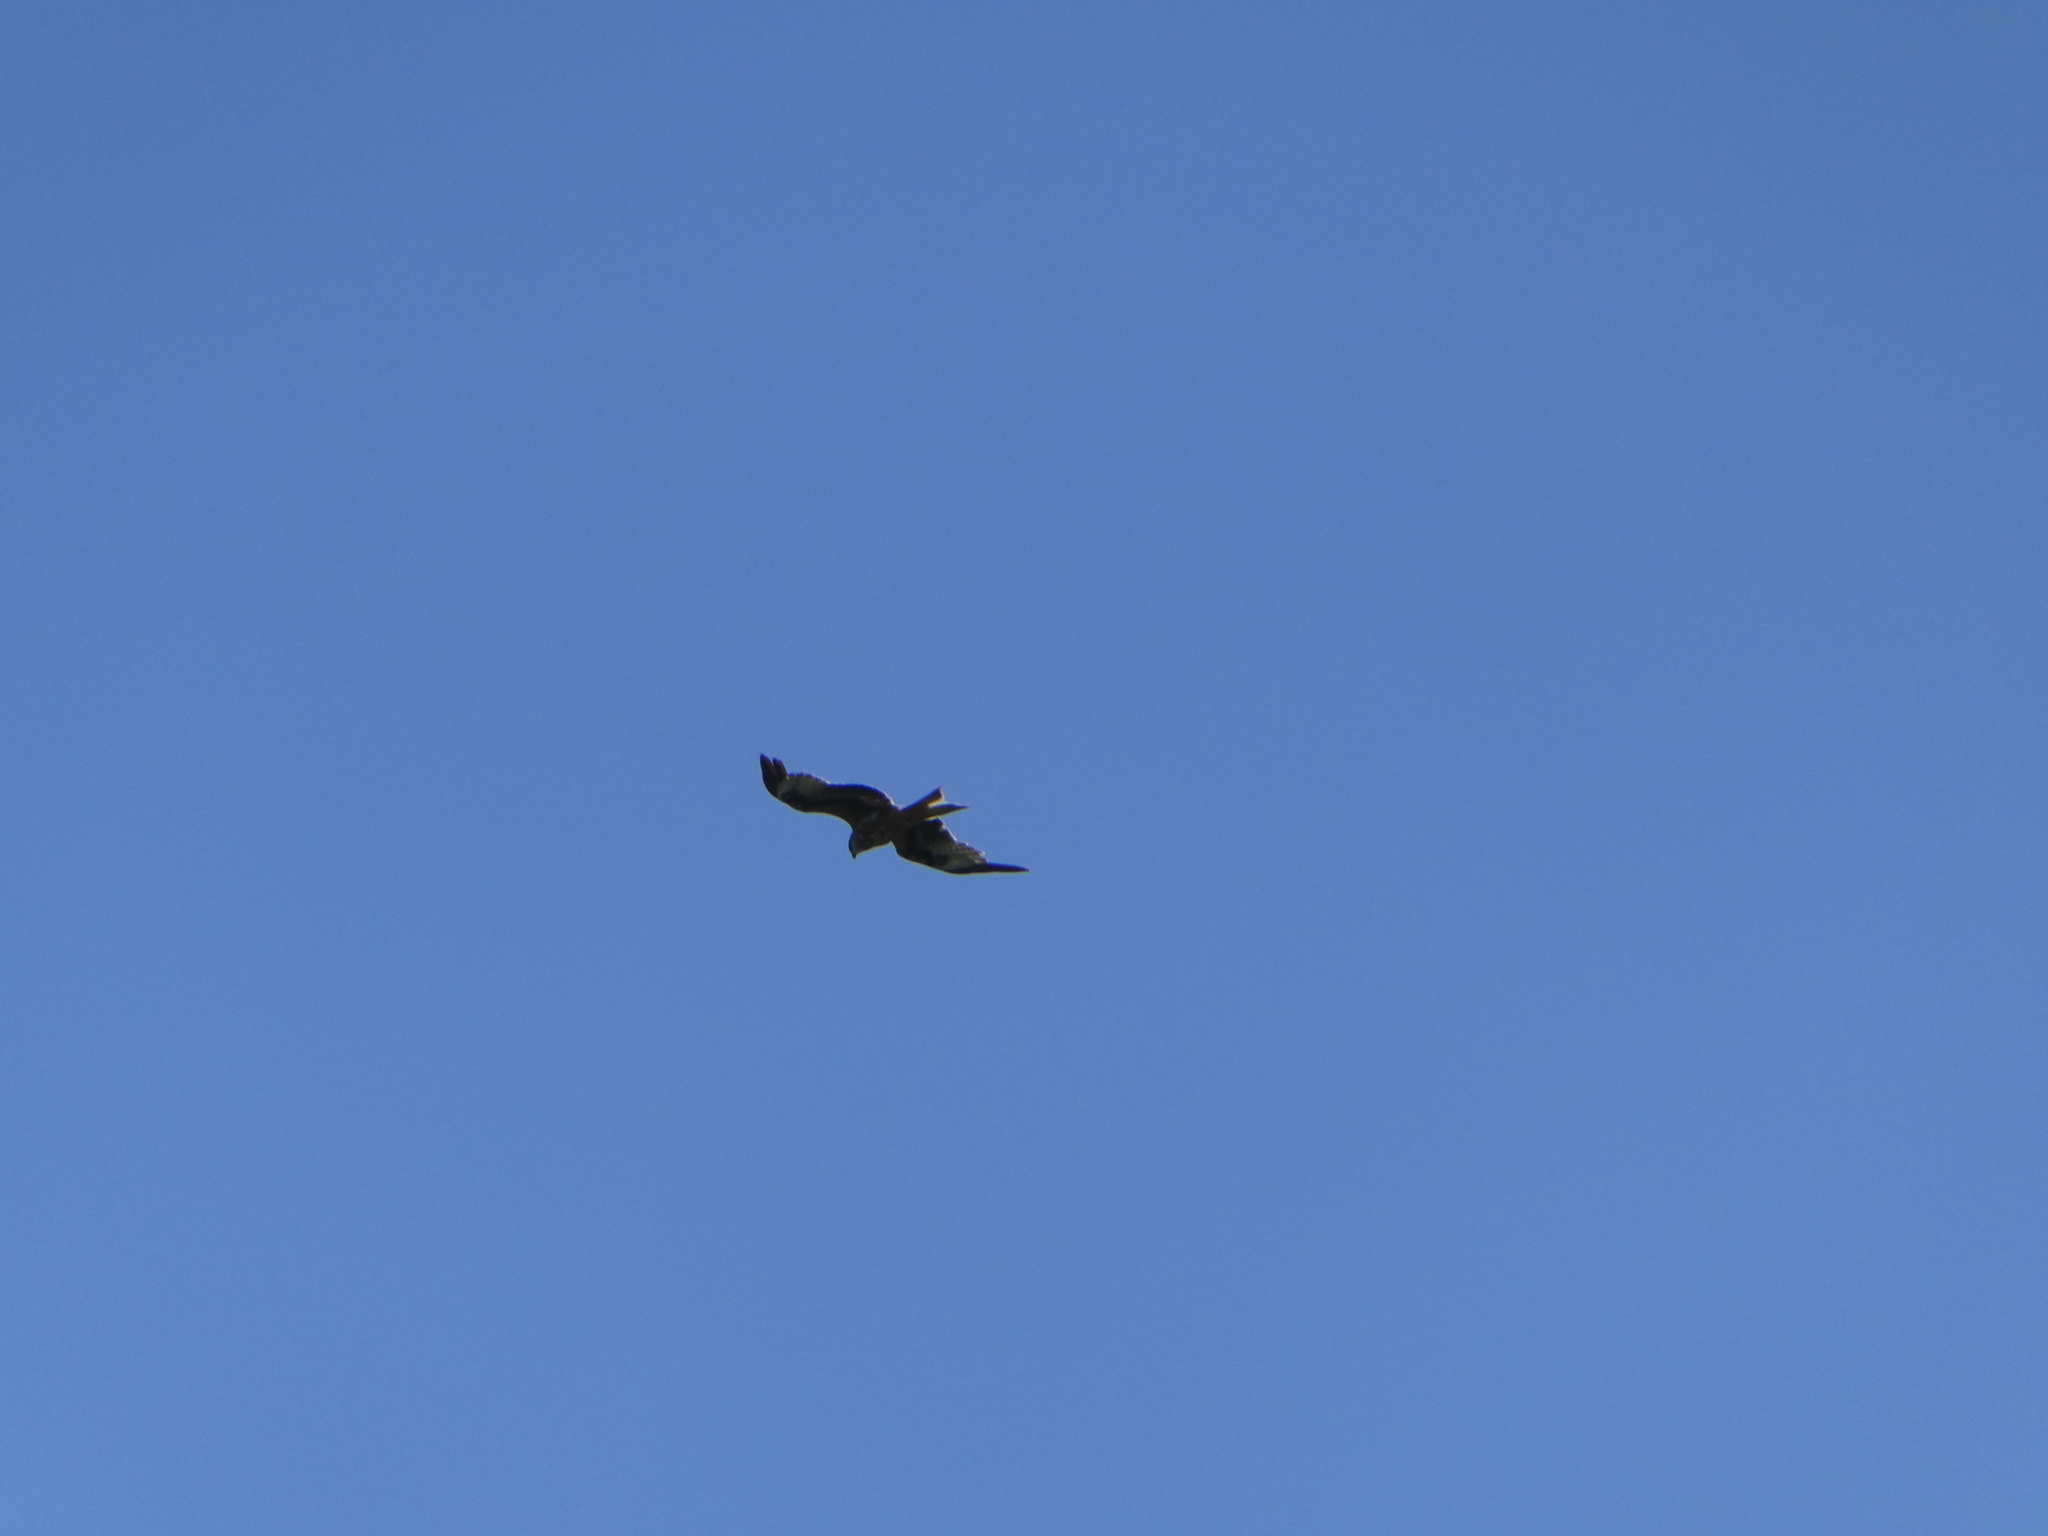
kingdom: Animalia
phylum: Chordata
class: Aves
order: Accipitriformes
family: Accipitridae
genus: Milvus
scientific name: Milvus milvus
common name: Red kite
